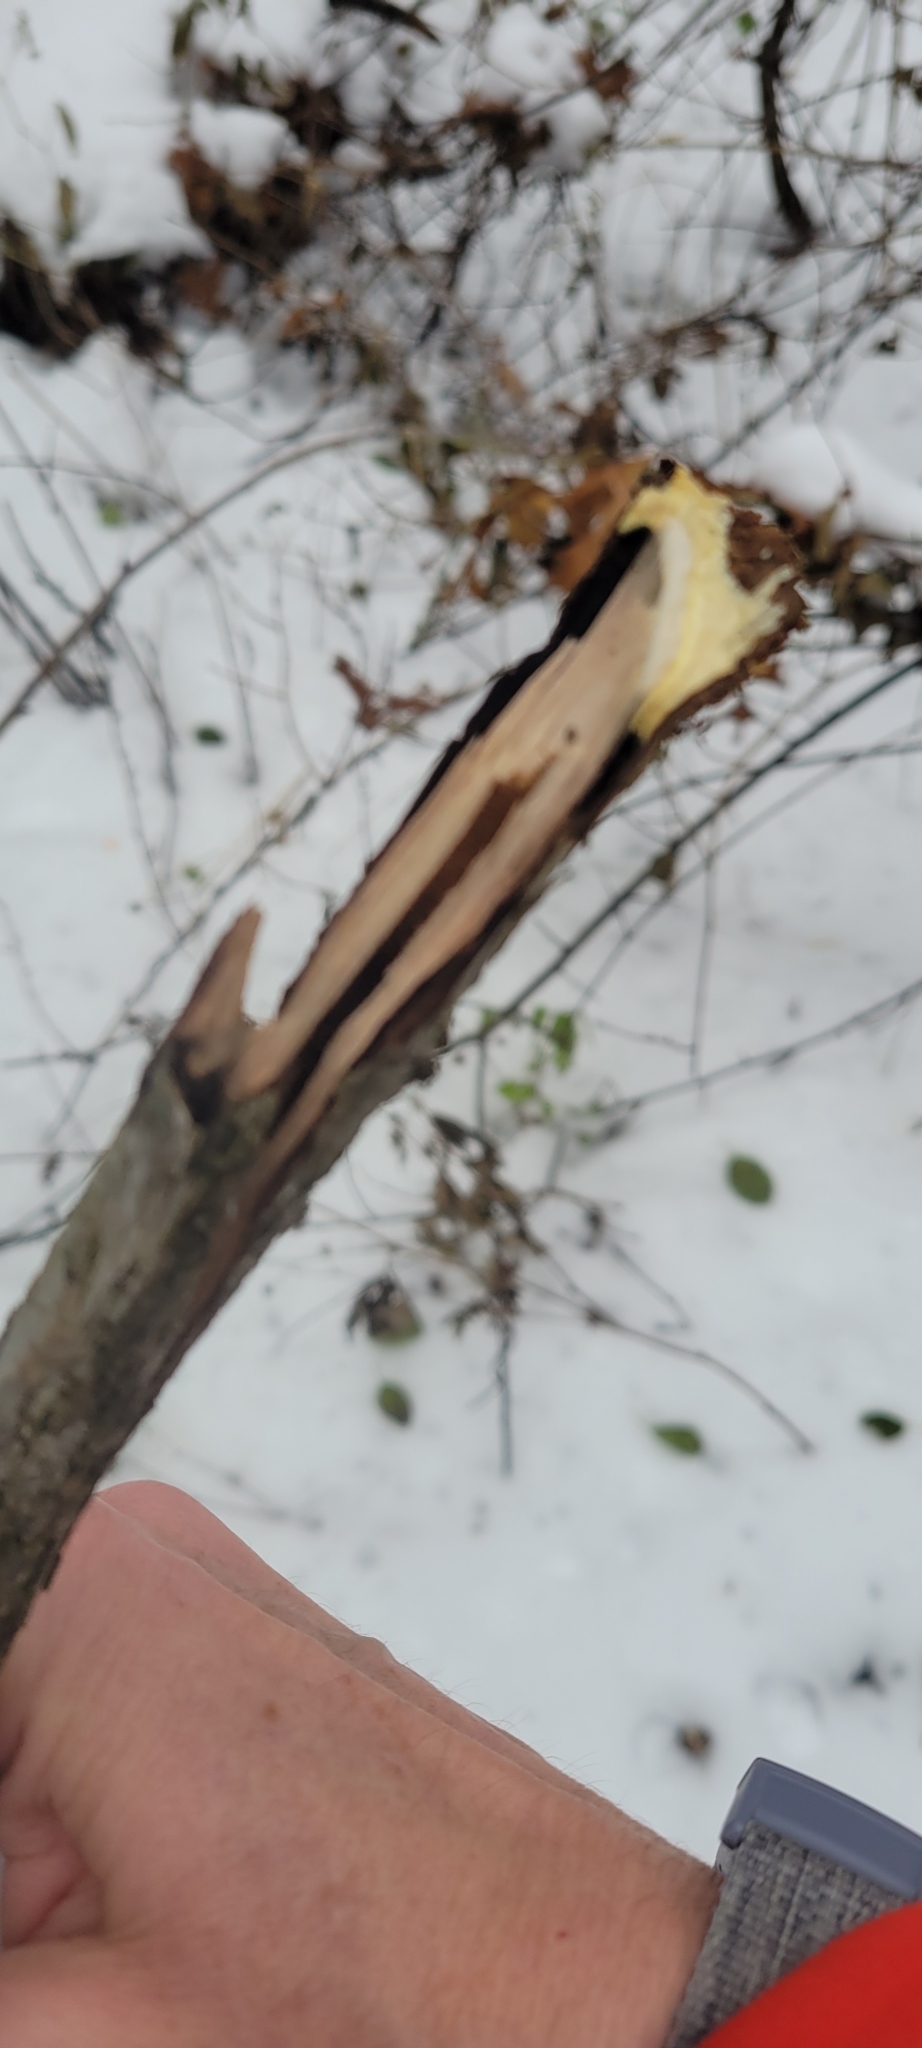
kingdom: Plantae
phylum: Tracheophyta
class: Magnoliopsida
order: Fagales
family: Juglandaceae
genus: Juglans
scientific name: Juglans nigra
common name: Black walnut
